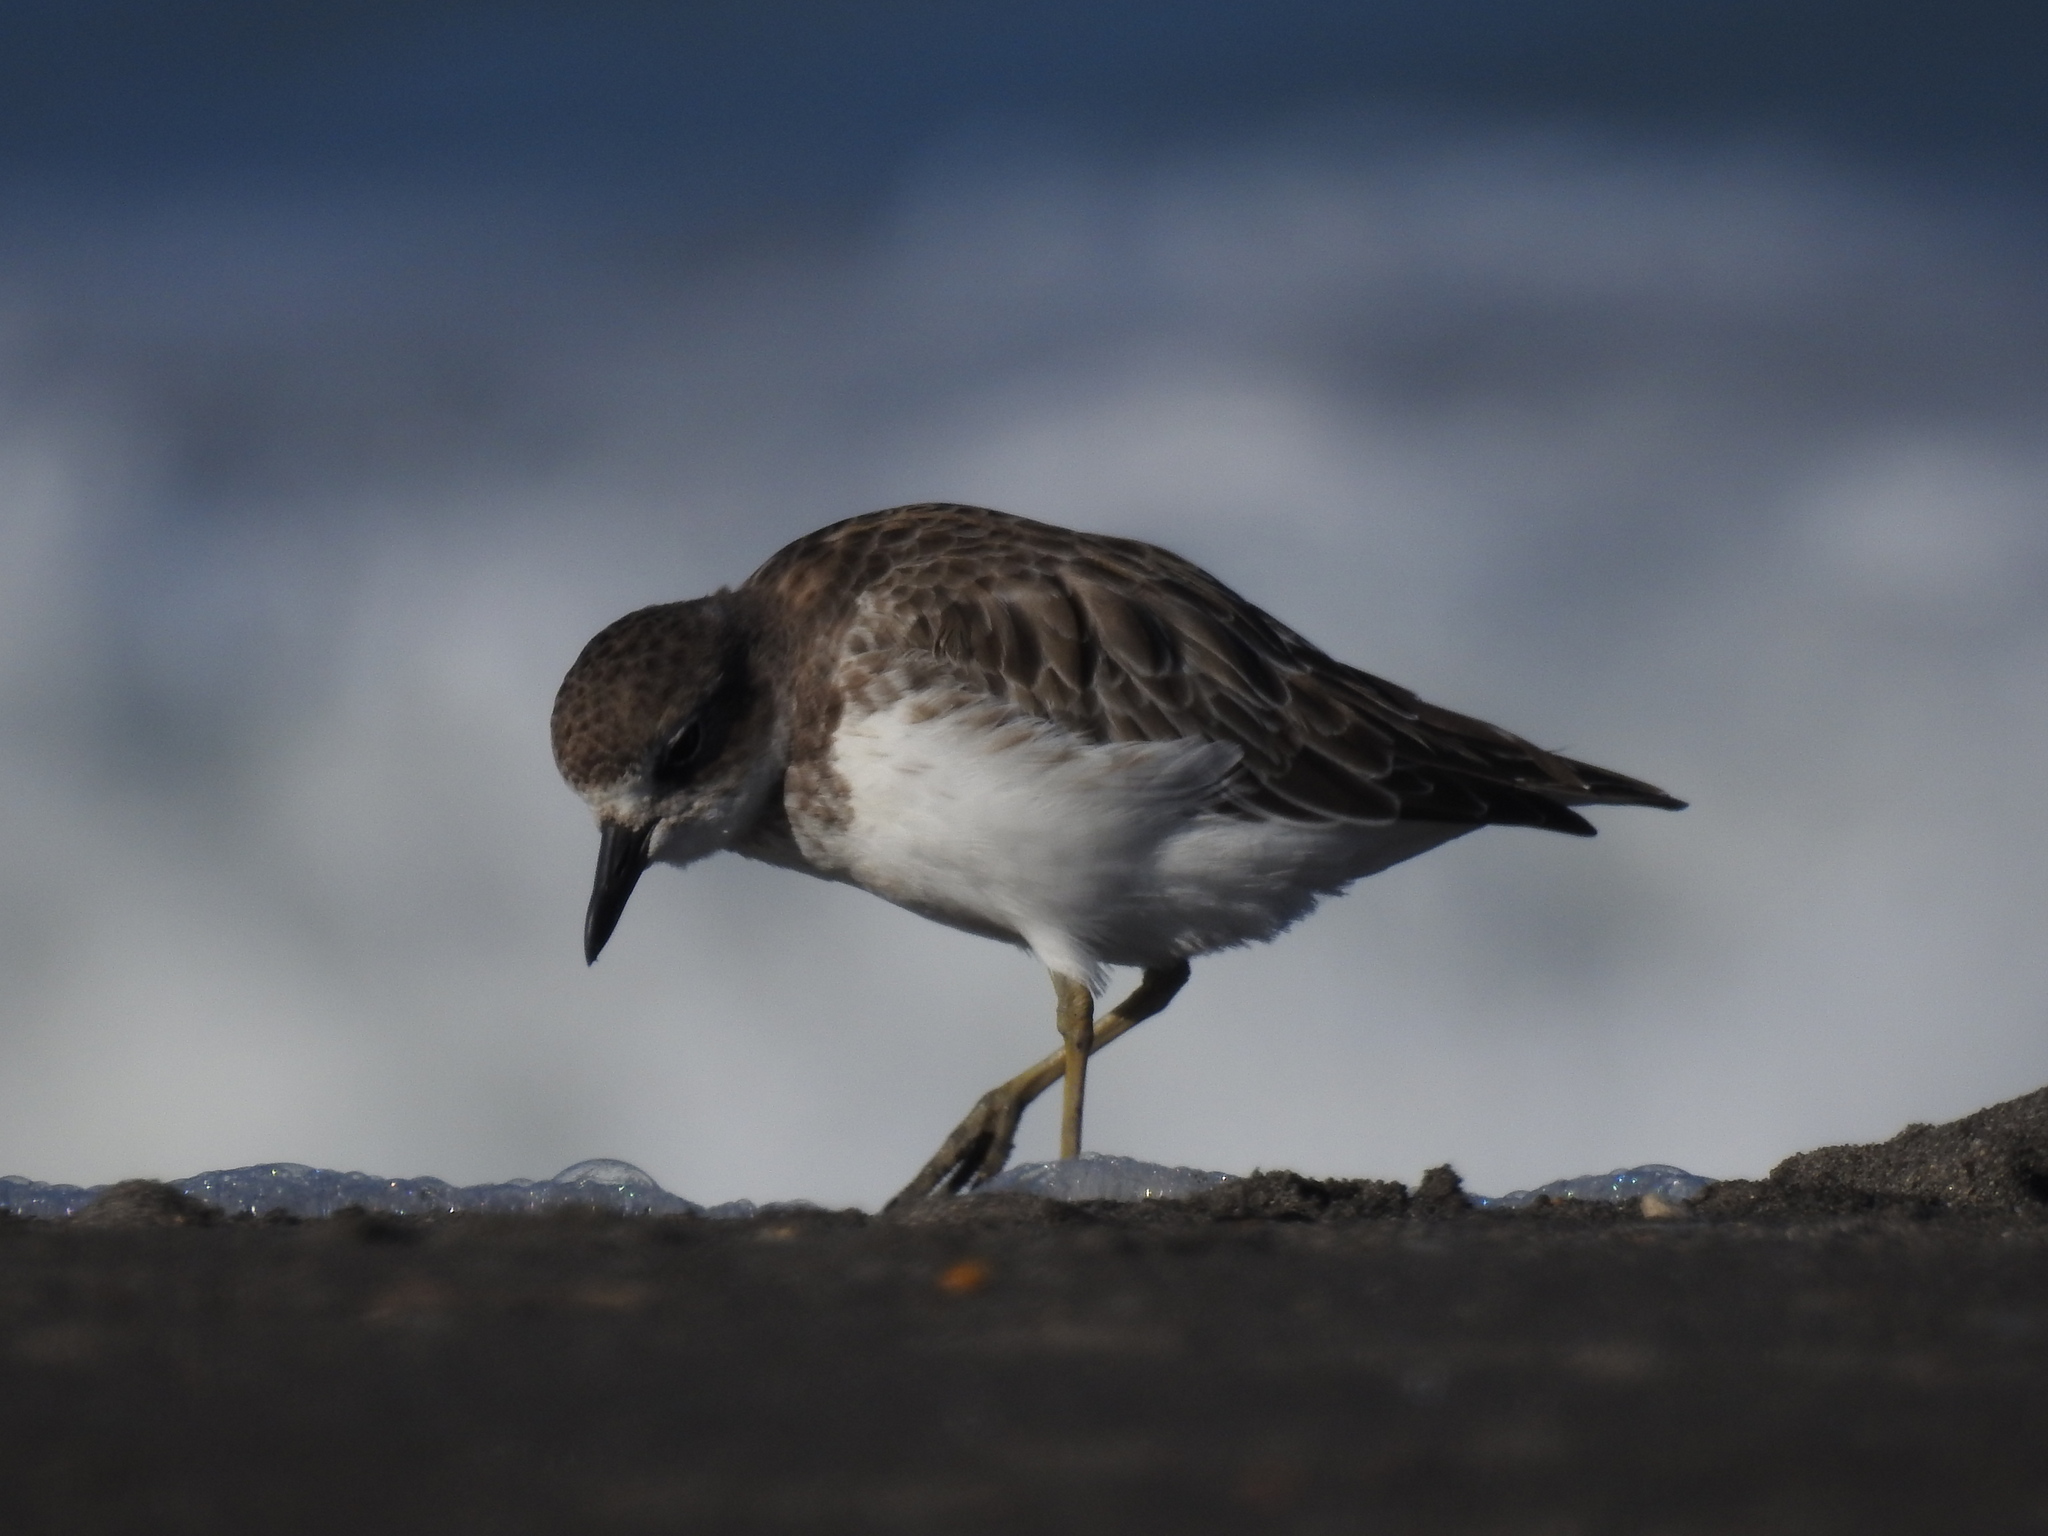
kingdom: Animalia
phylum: Chordata
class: Aves
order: Charadriiformes
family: Charadriidae
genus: Anarhynchus
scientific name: Anarhynchus
